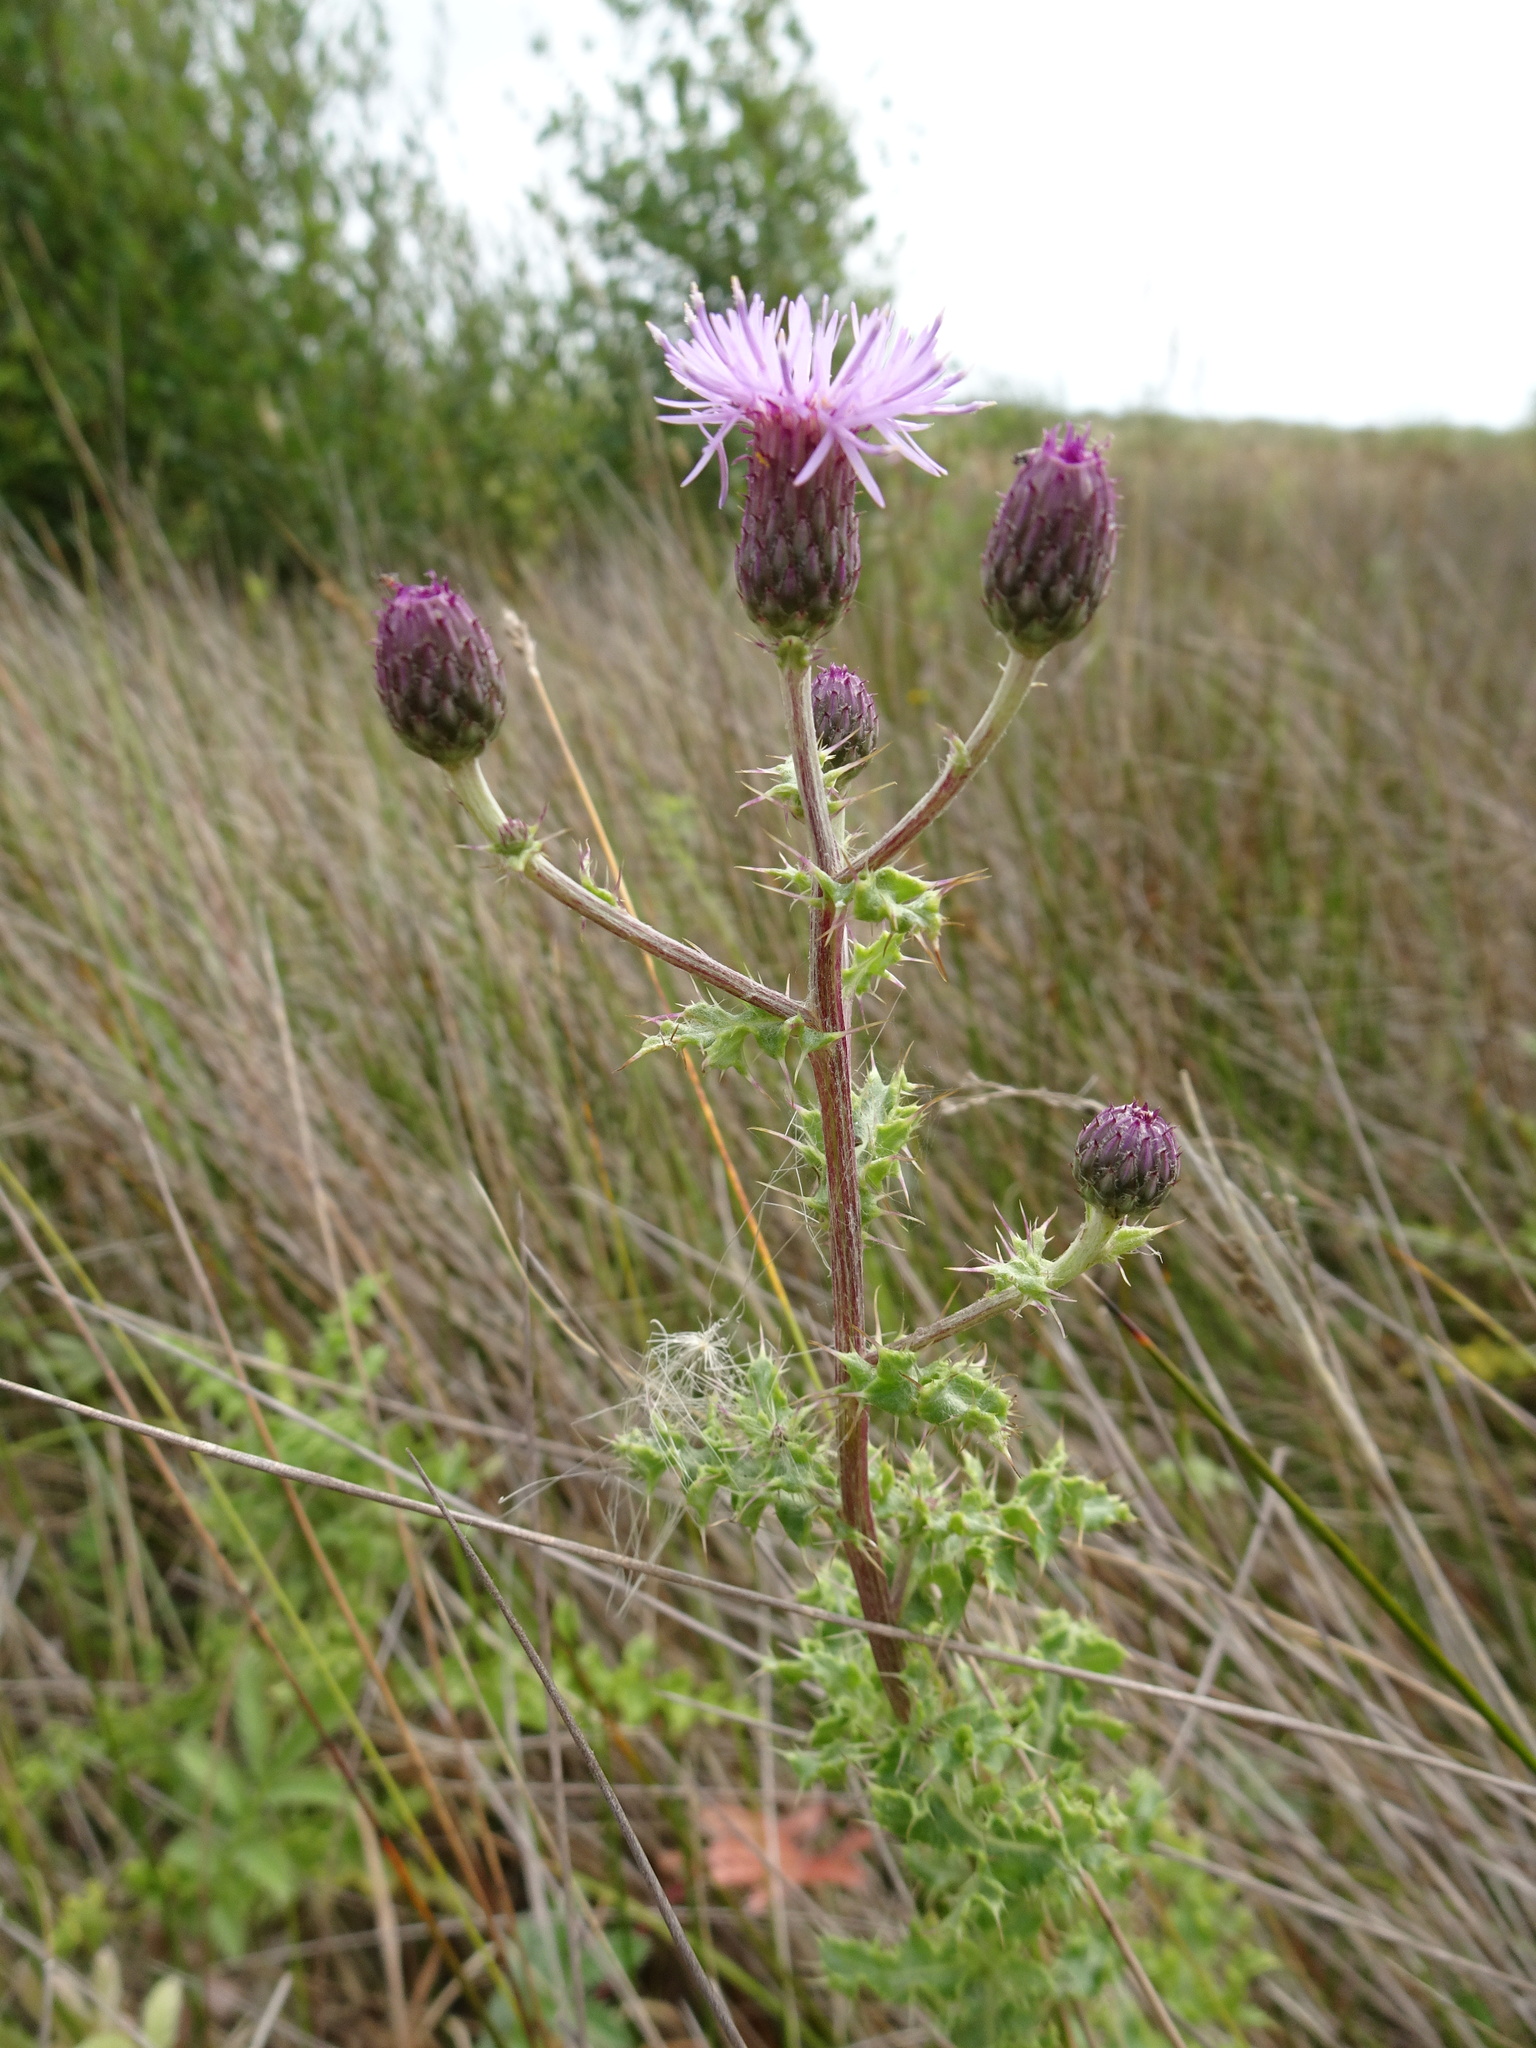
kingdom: Plantae
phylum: Tracheophyta
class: Magnoliopsida
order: Asterales
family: Asteraceae
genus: Cirsium
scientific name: Cirsium arvense
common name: Creeping thistle
